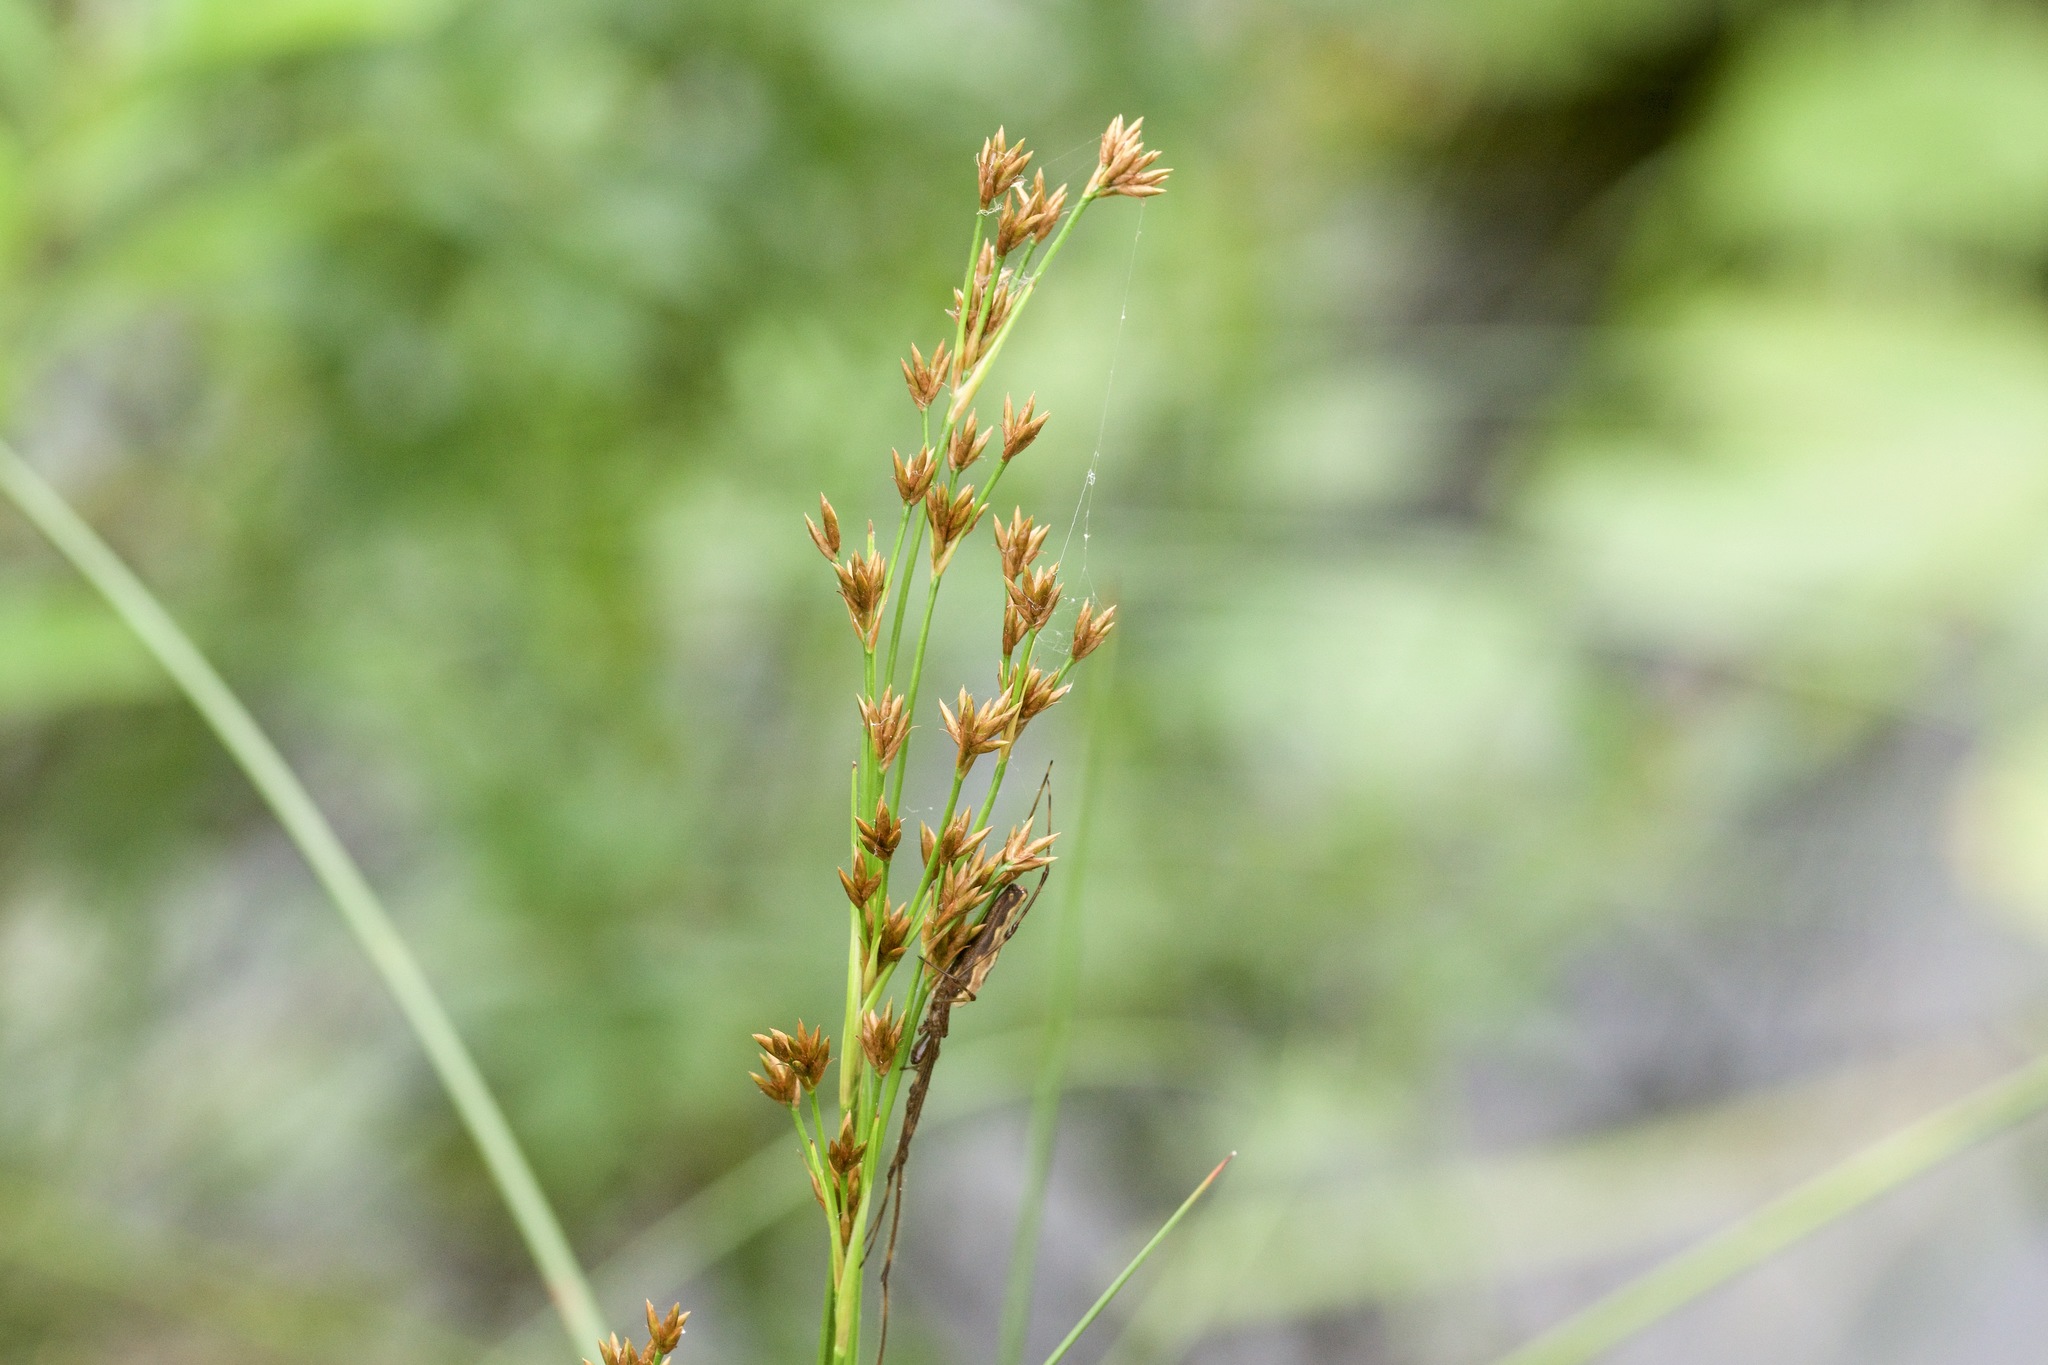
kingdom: Plantae
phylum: Tracheophyta
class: Liliopsida
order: Poales
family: Cyperaceae
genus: Cladium
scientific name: Cladium mariscoides
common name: Smooth sawgrass
